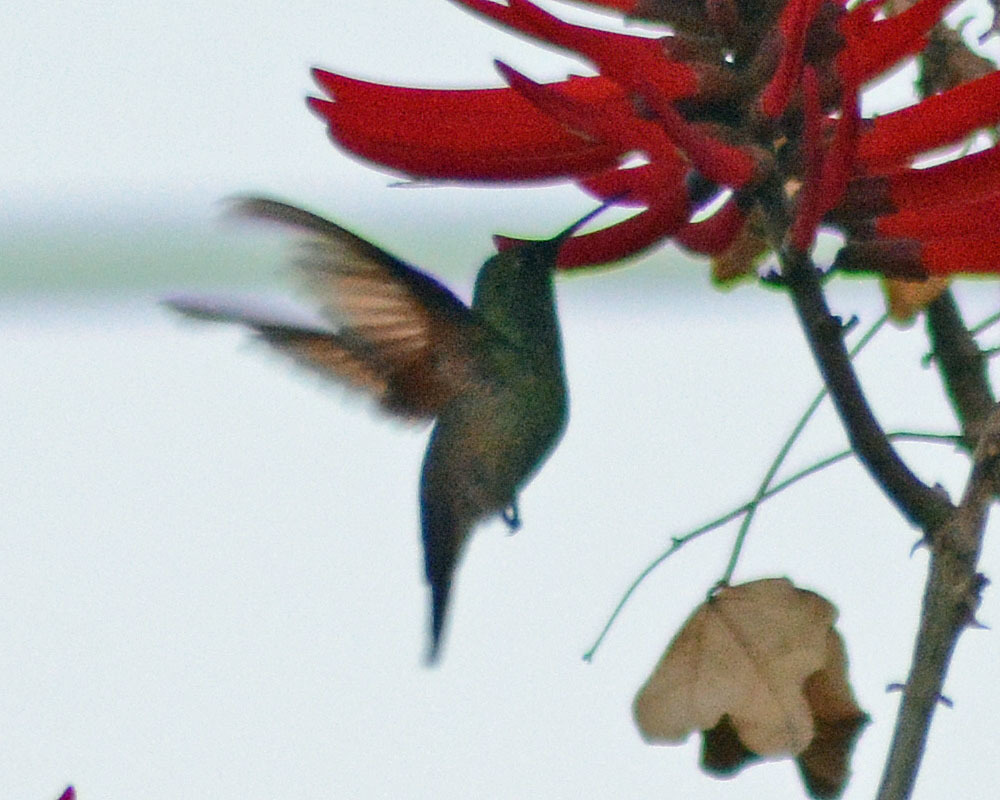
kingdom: Animalia
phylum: Chordata
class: Aves
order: Apodiformes
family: Trochilidae
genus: Saucerottia
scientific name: Saucerottia beryllina
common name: Berylline hummingbird
